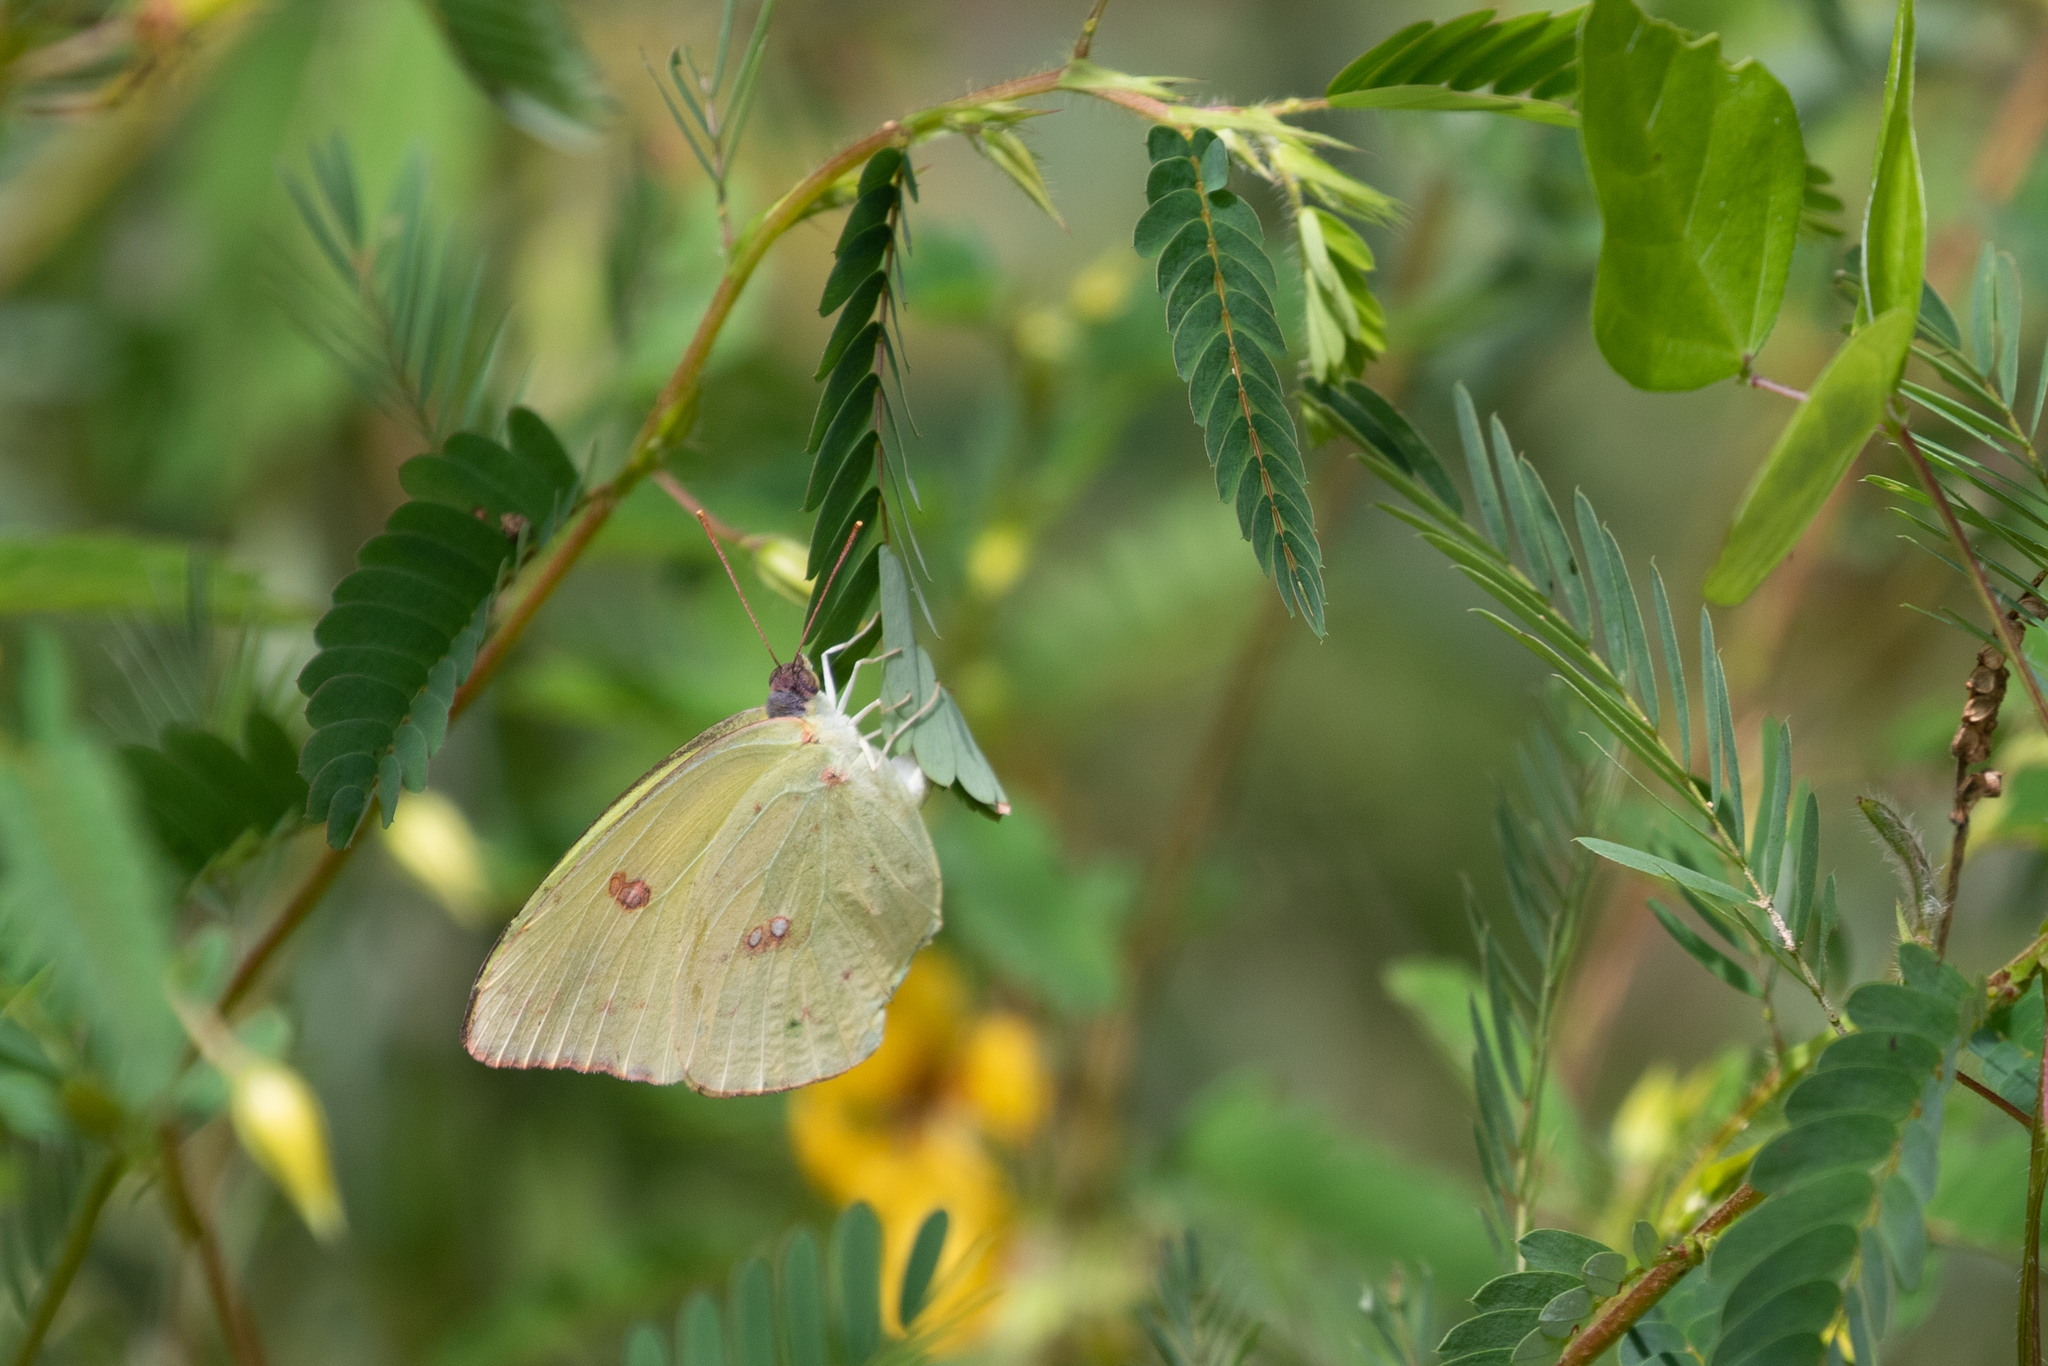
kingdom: Animalia
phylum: Arthropoda
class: Insecta
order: Lepidoptera
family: Pieridae
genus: Phoebis
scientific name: Phoebis sennae
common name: Cloudless sulphur
